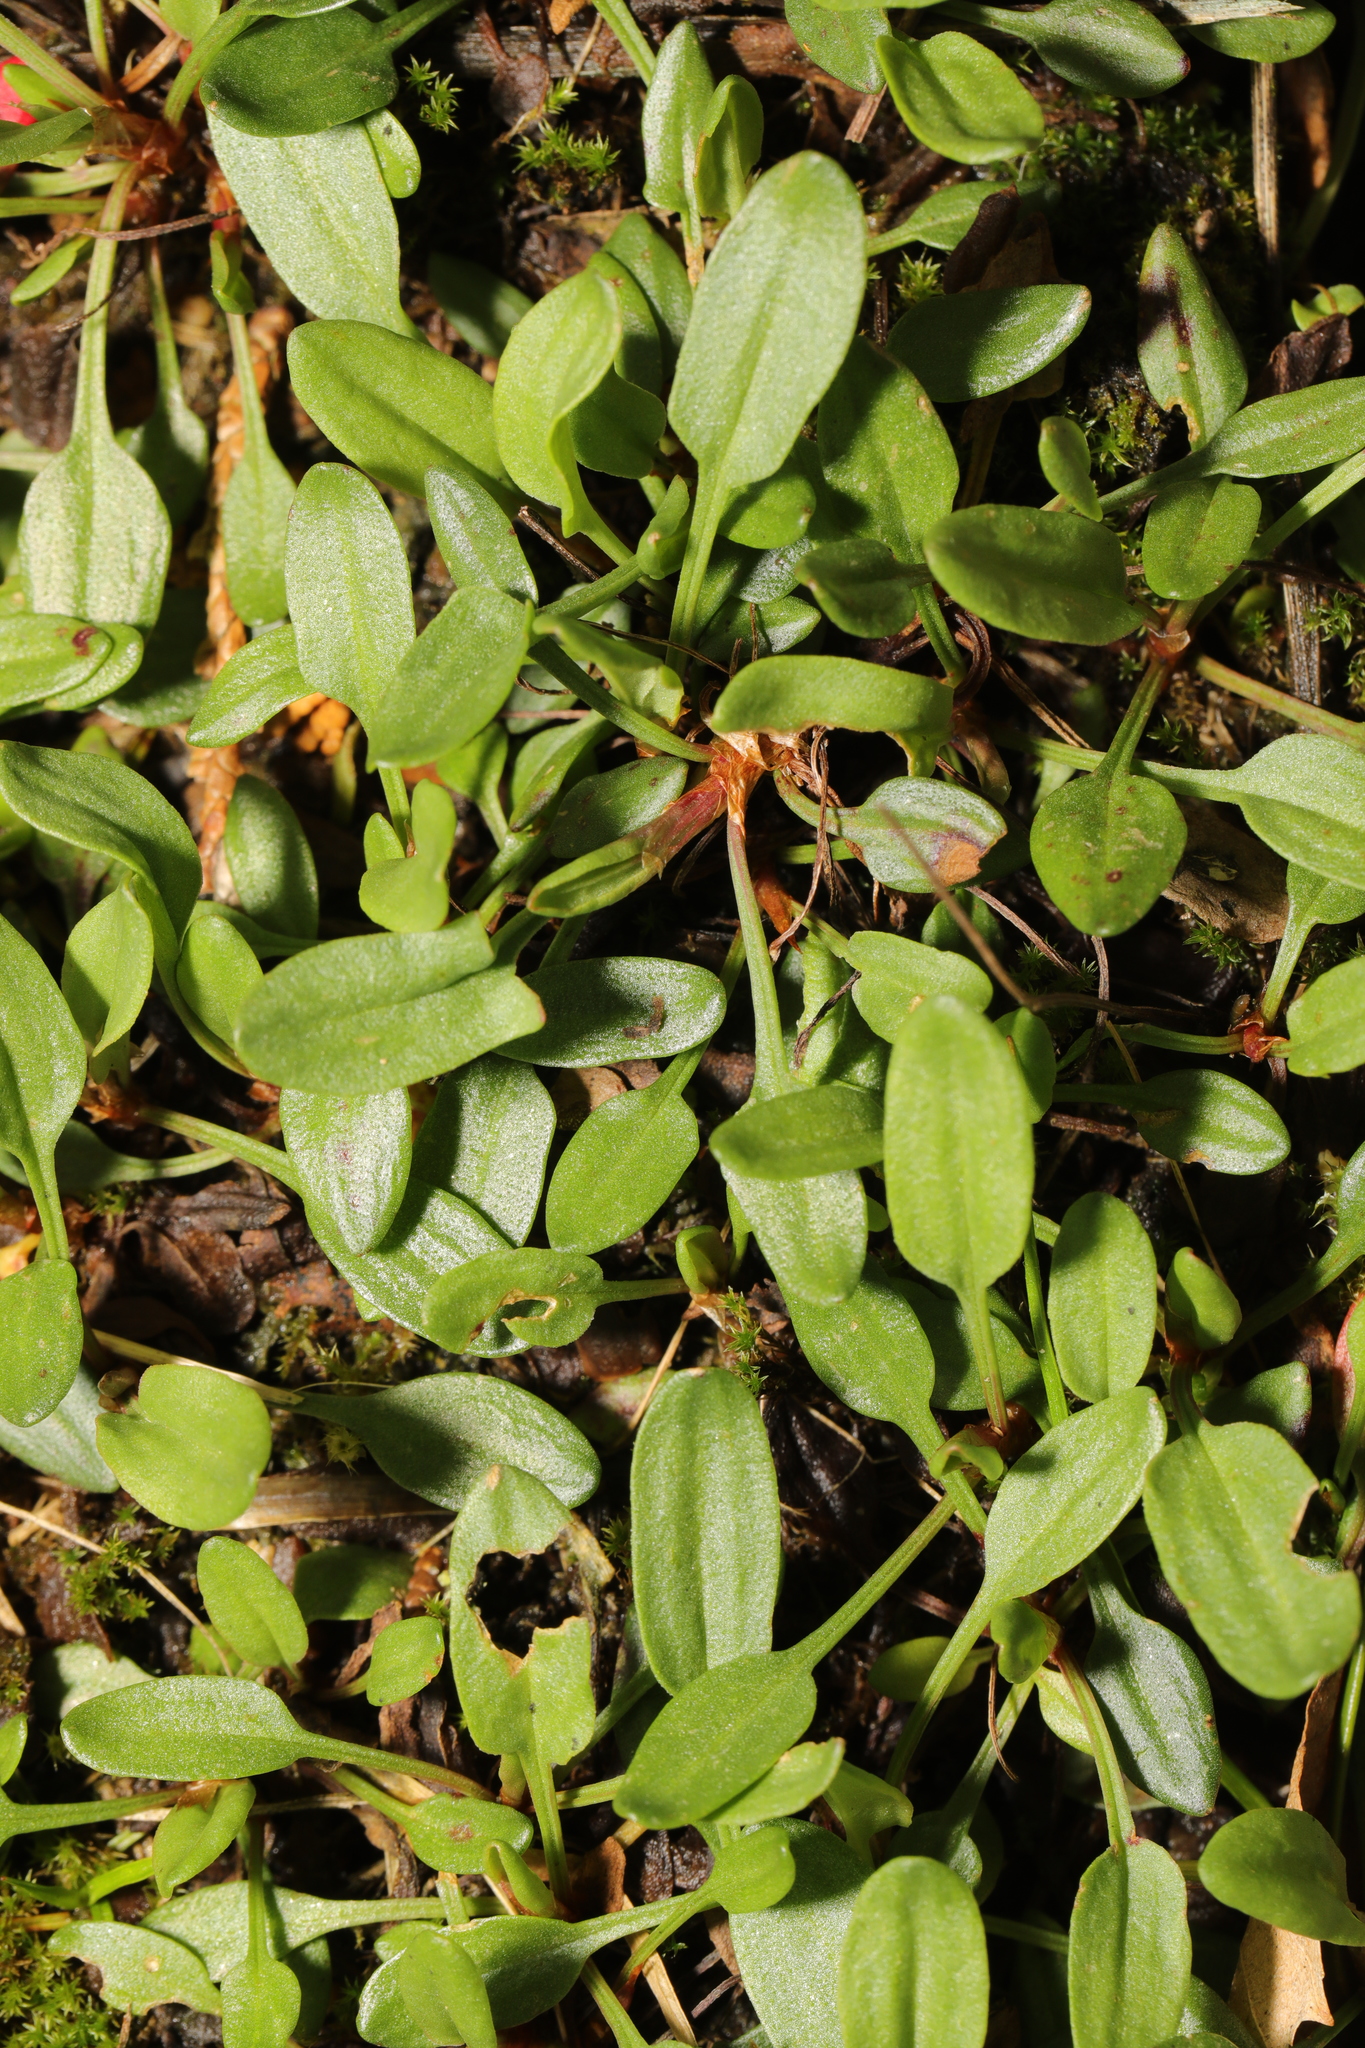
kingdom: Plantae
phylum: Tracheophyta
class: Magnoliopsida
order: Caryophyllales
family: Polygonaceae
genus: Rumex
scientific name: Rumex acetosella
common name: Common sheep sorrel
